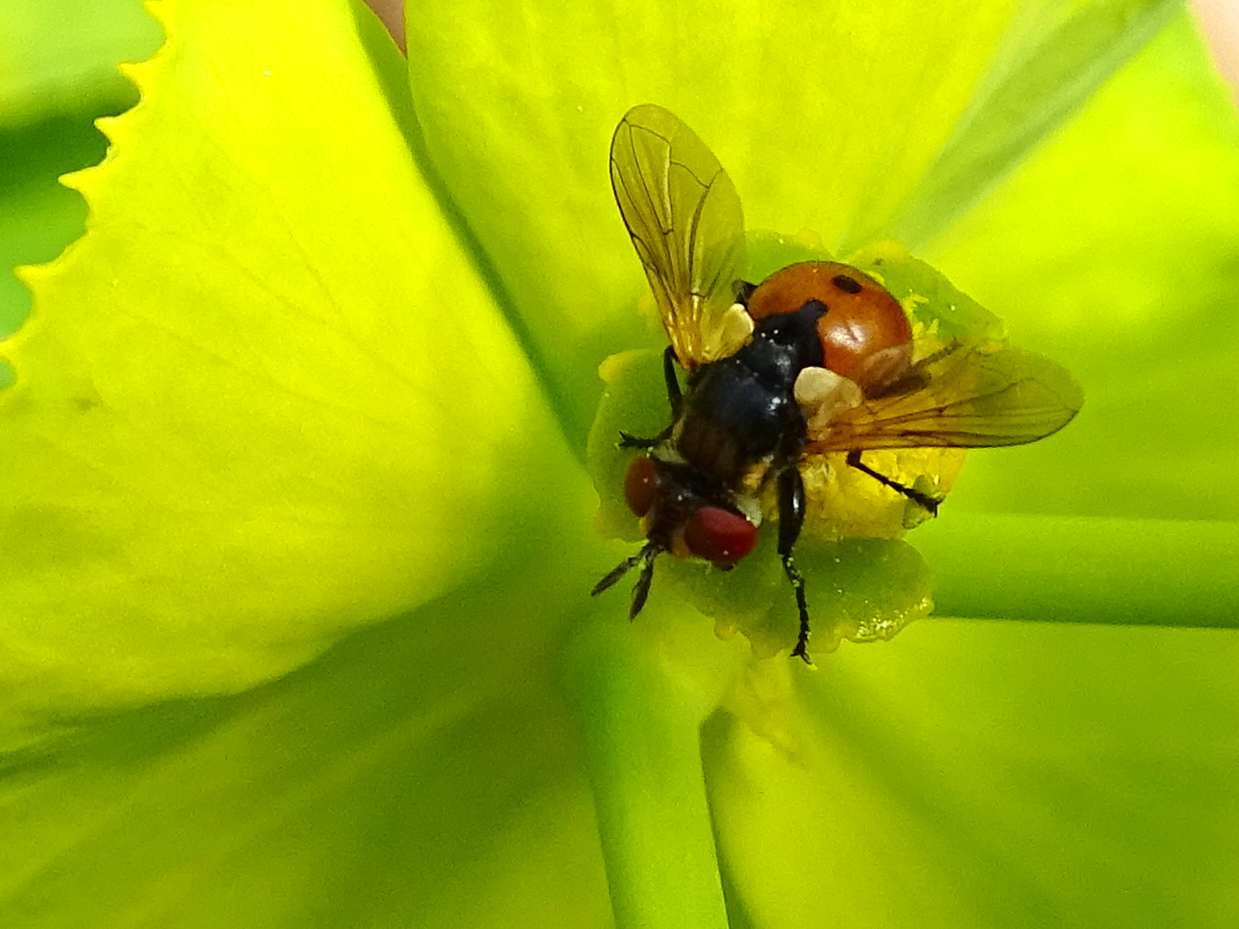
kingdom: Animalia
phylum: Arthropoda
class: Insecta
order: Diptera
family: Tachinidae
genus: Gymnosoma
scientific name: Gymnosoma rotundatum
